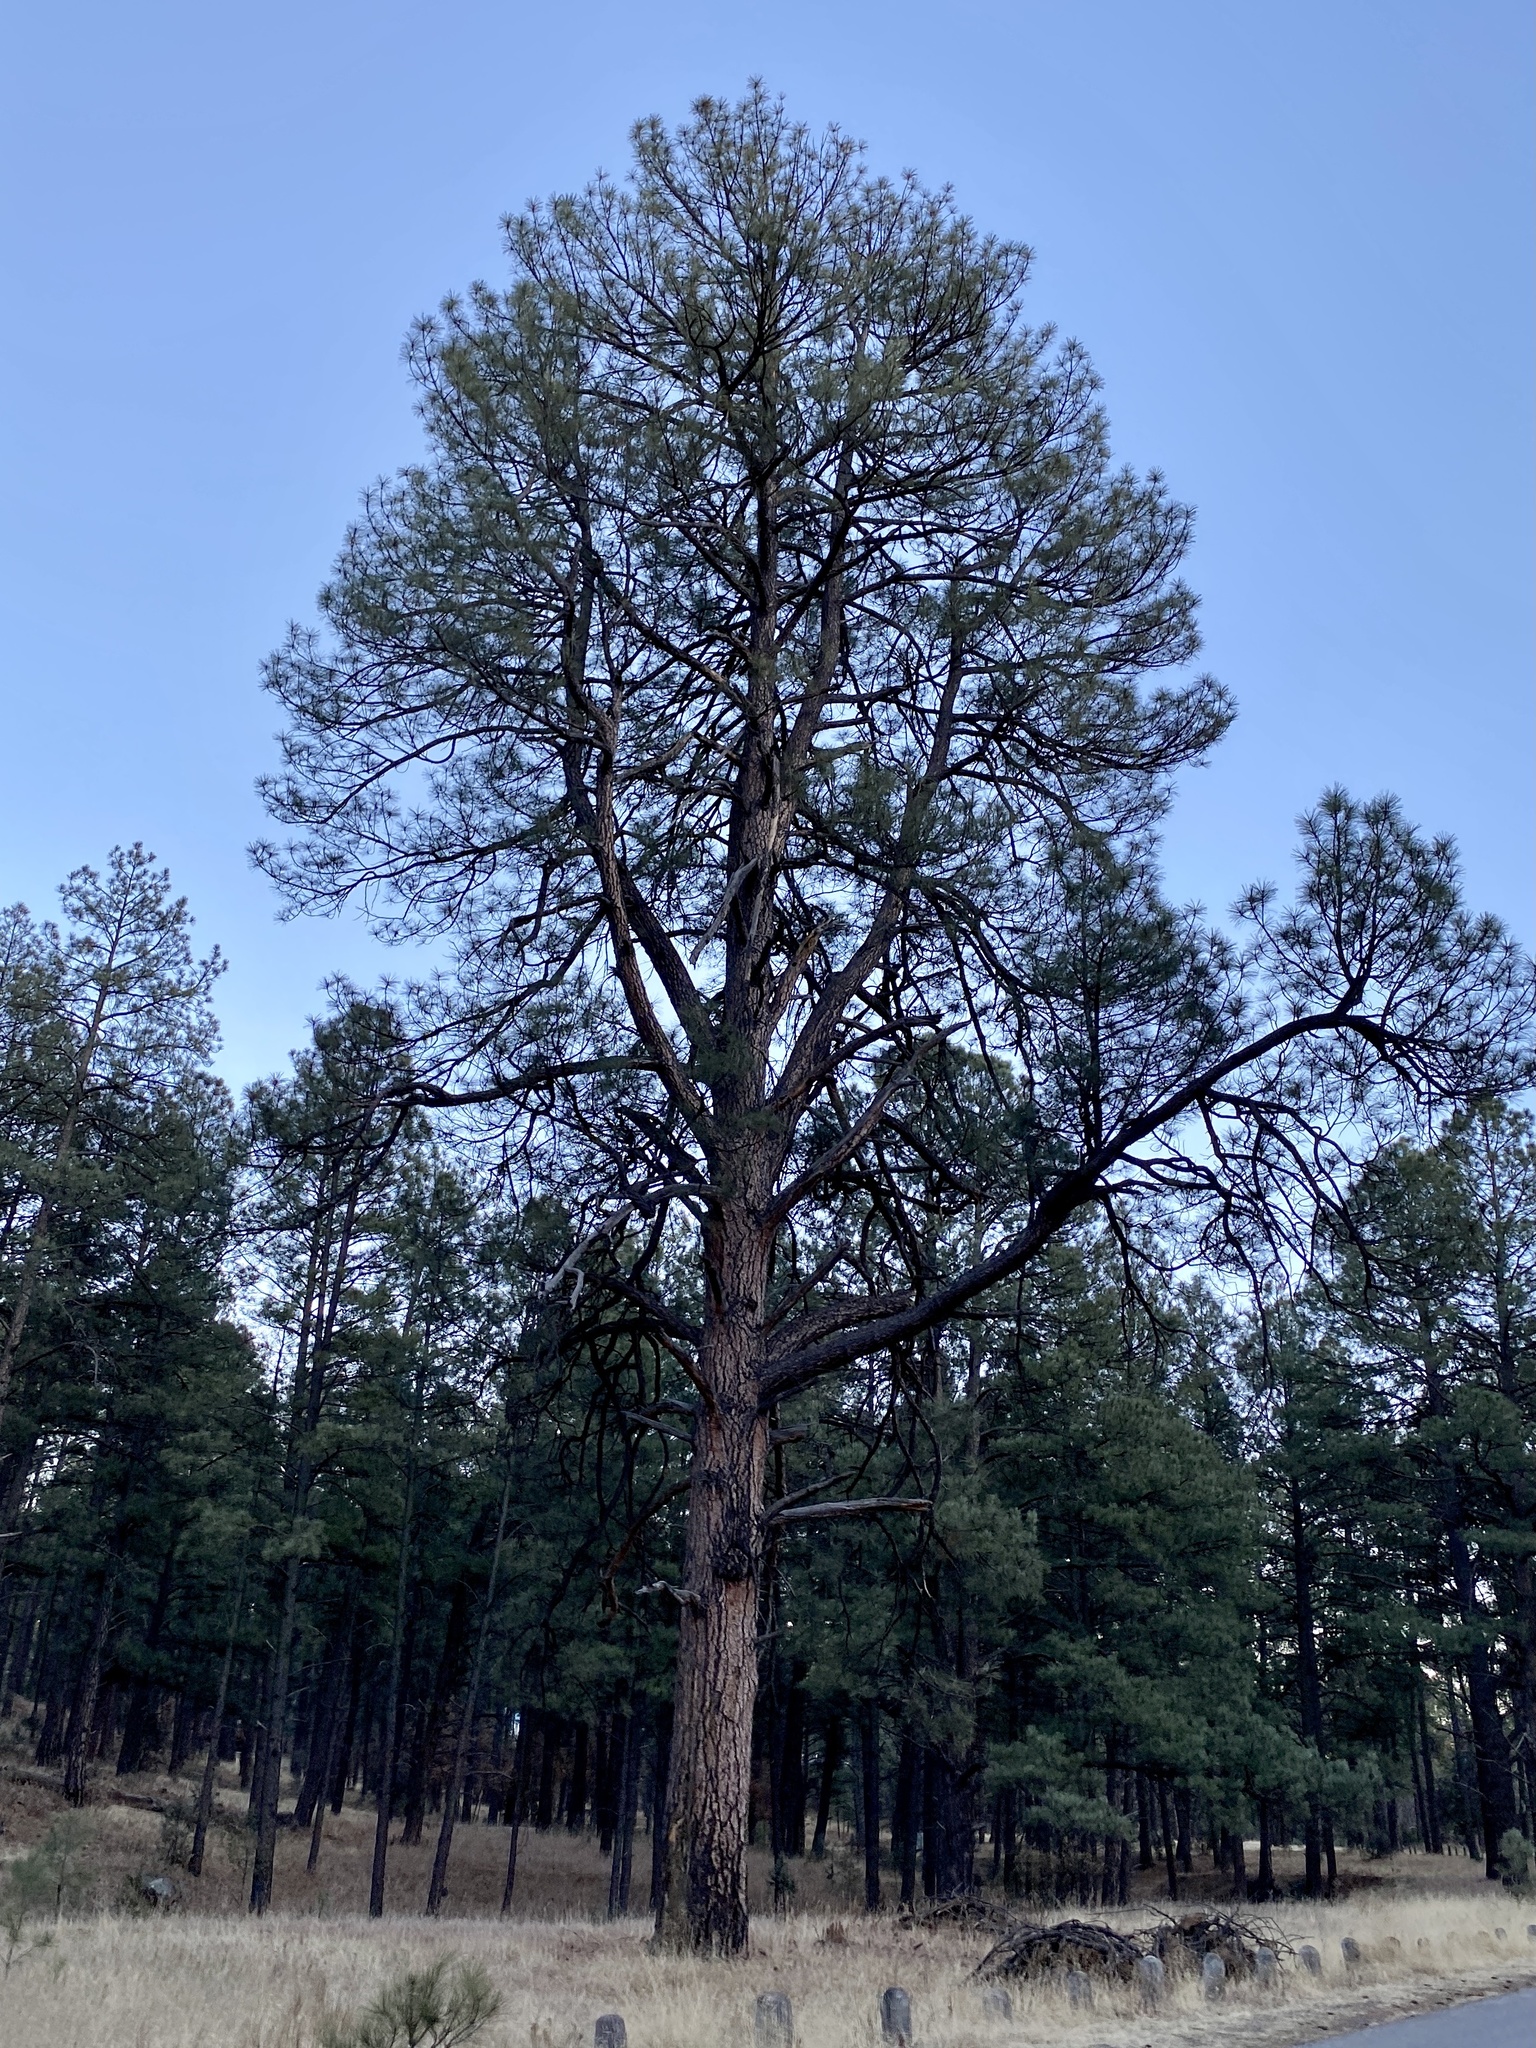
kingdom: Plantae
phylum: Tracheophyta
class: Pinopsida
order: Pinales
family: Pinaceae
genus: Pinus
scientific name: Pinus ponderosa
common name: Western yellow-pine
